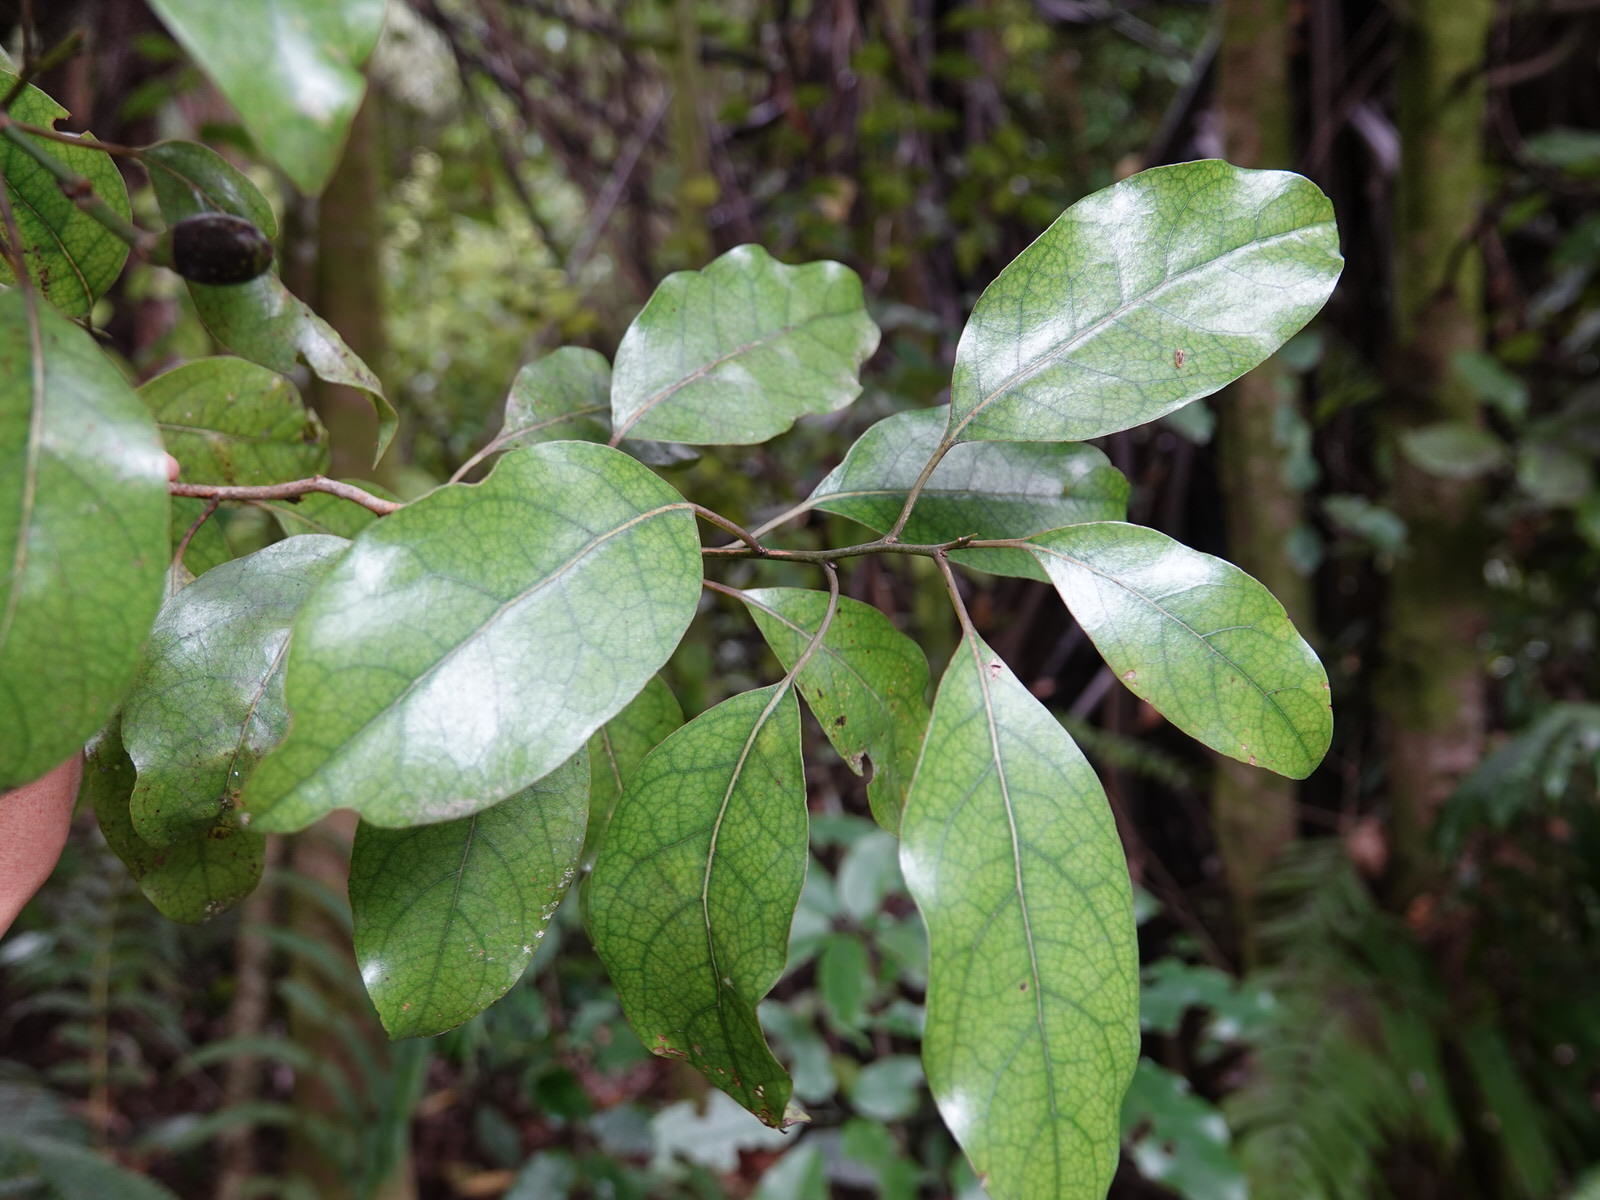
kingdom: Plantae
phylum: Tracheophyta
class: Magnoliopsida
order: Laurales
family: Lauraceae
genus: Litsea
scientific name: Litsea calicaris
